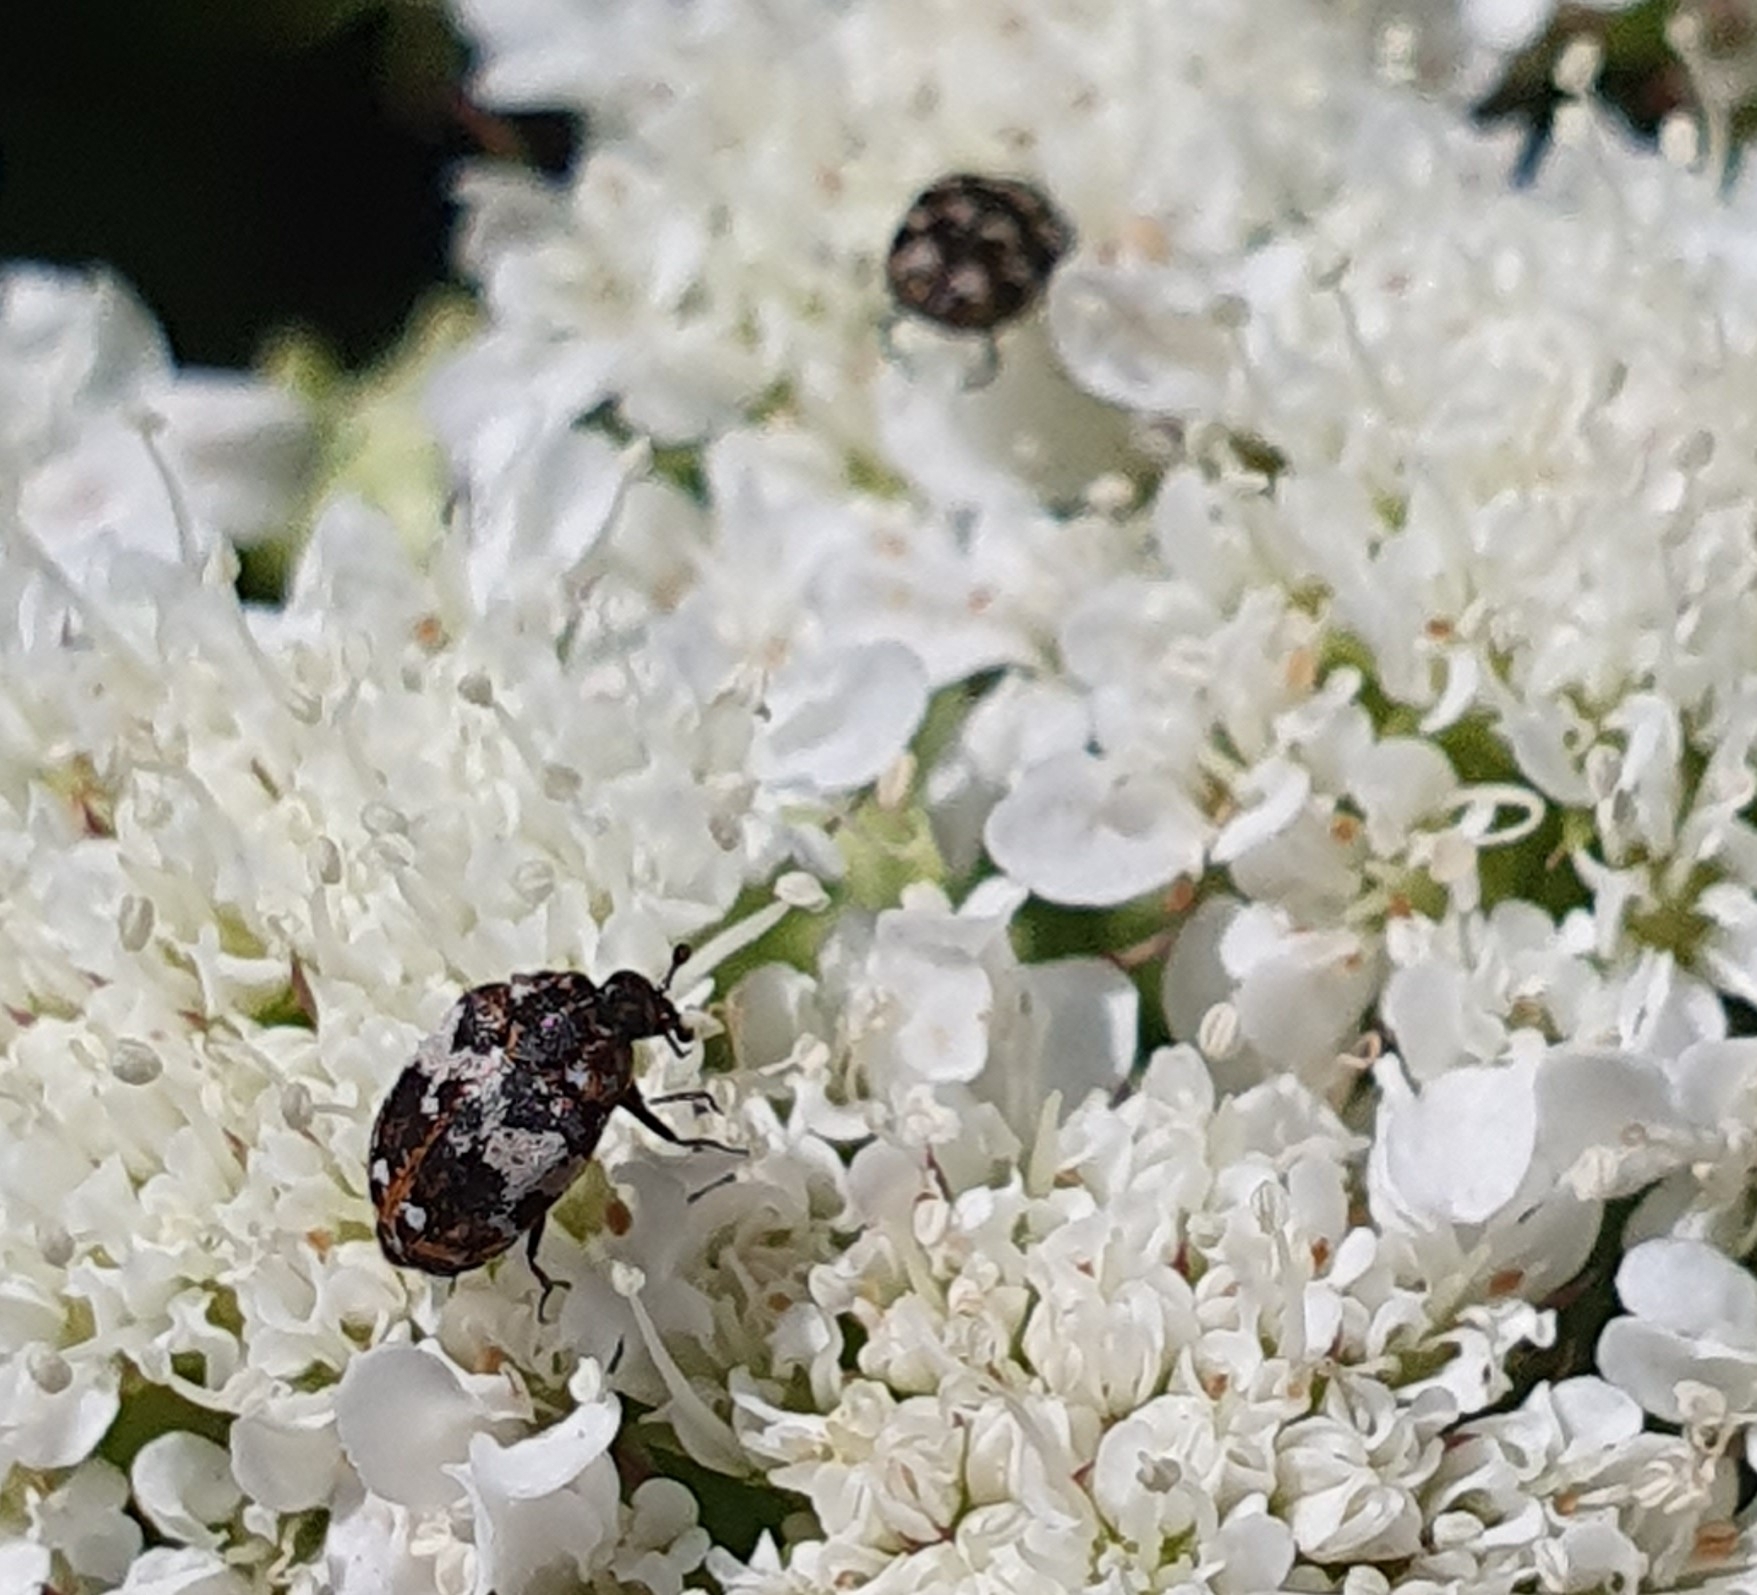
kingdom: Animalia
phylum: Arthropoda
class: Insecta
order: Coleoptera
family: Dermestidae
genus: Anthrenus
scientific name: Anthrenus pimpinellae
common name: Dermestid beetle
